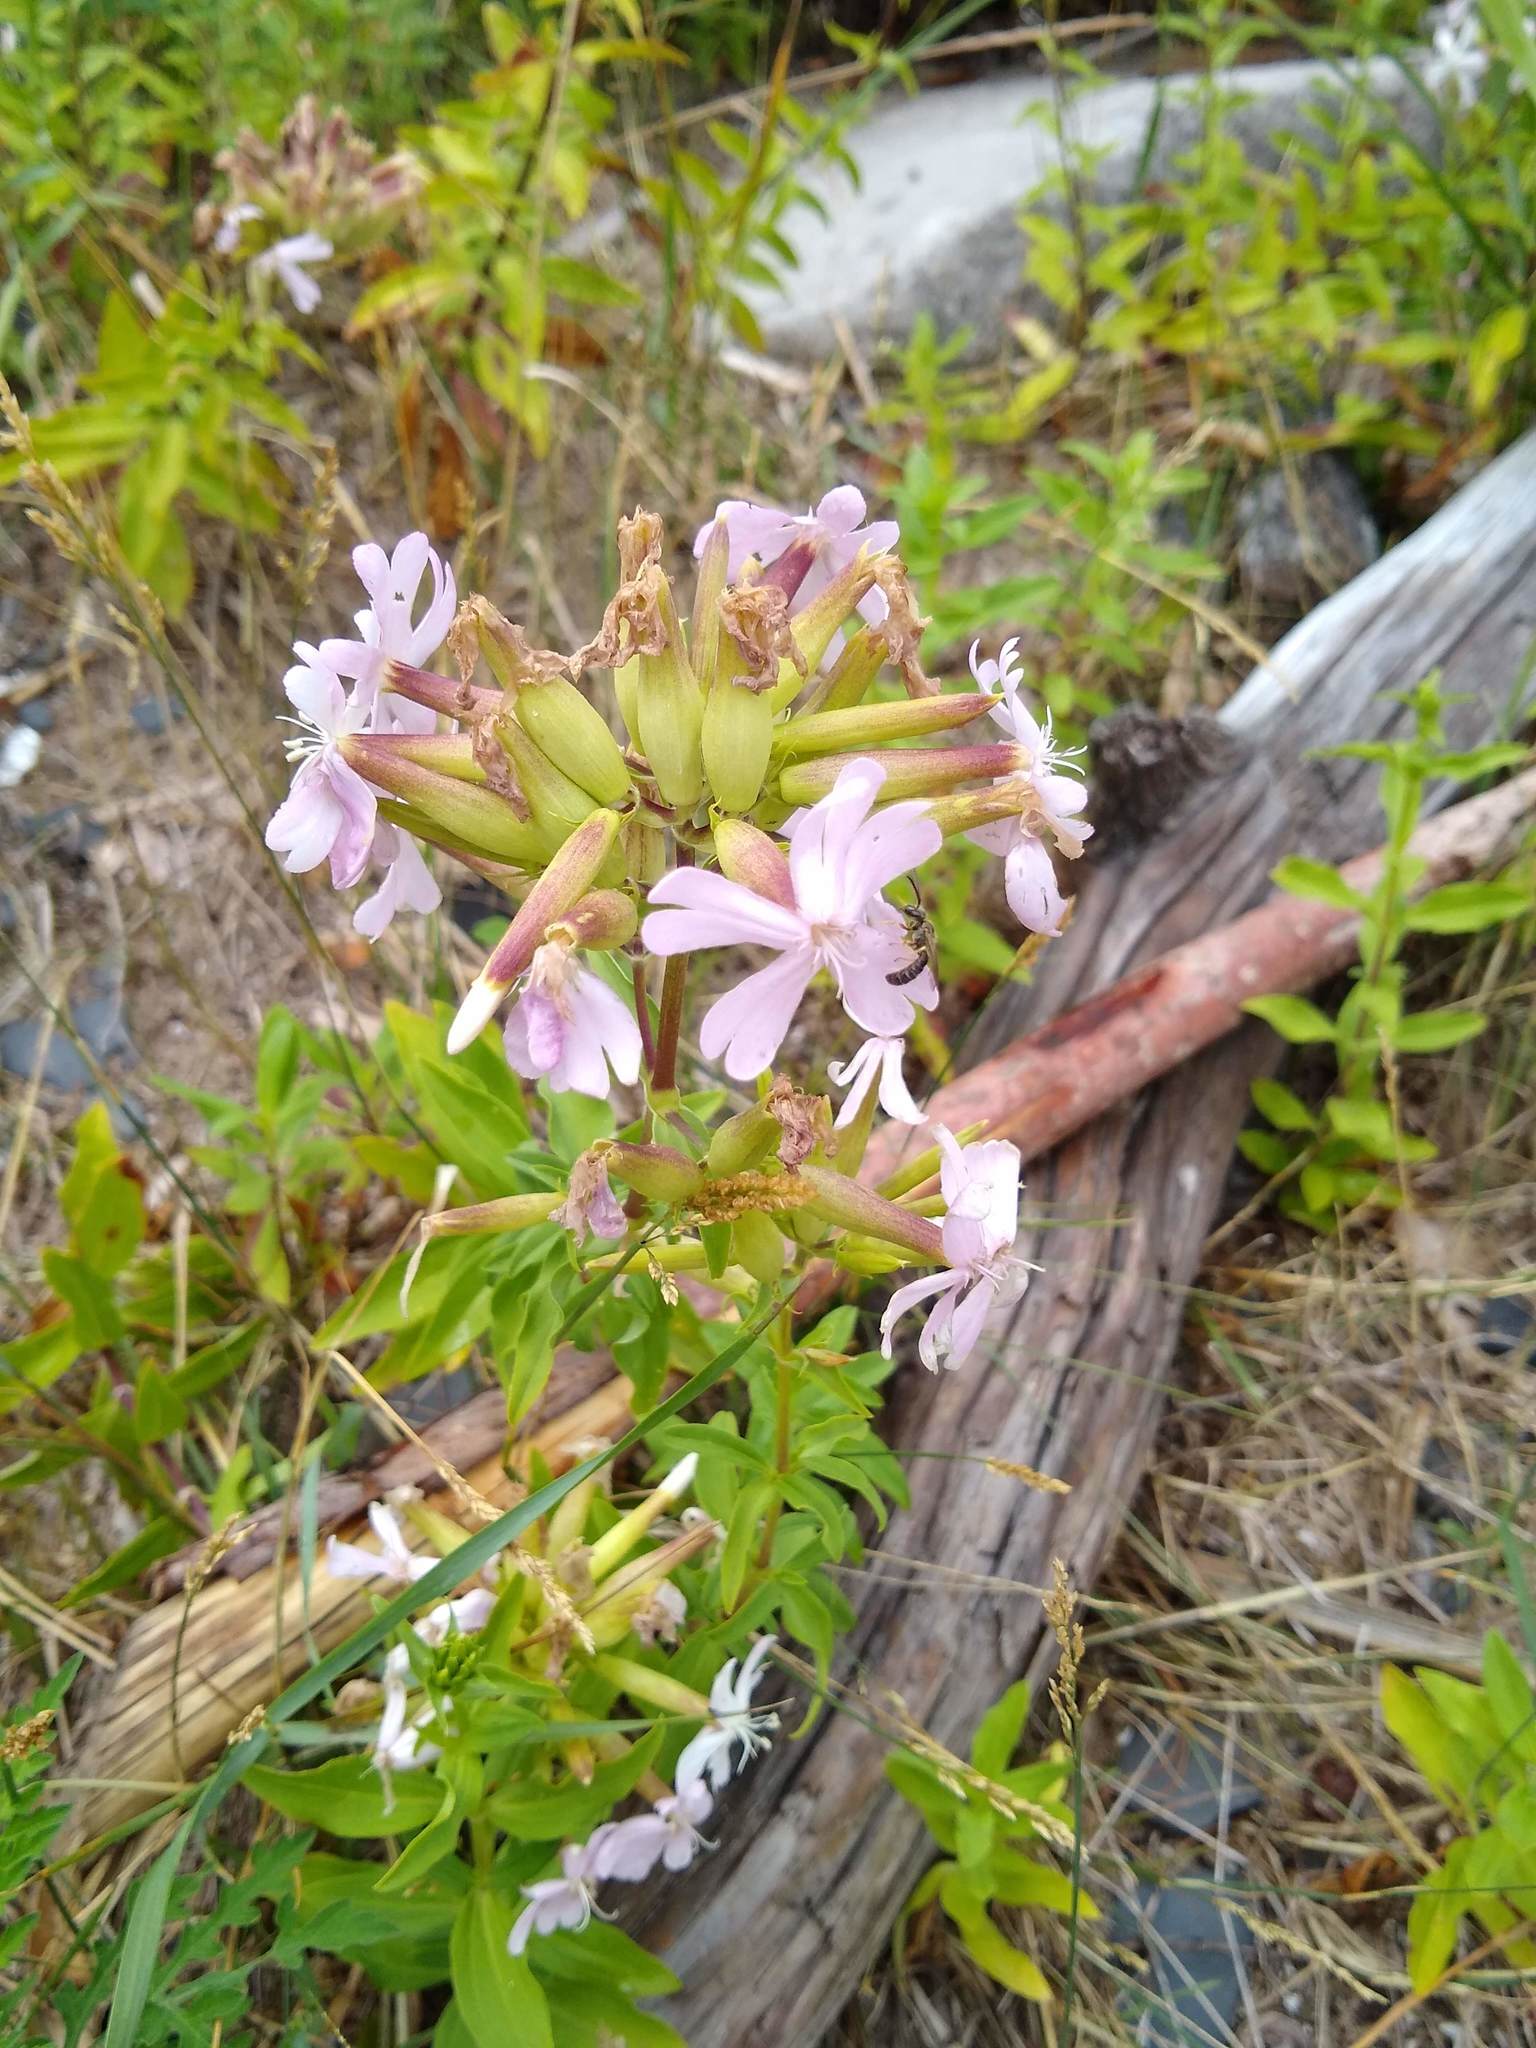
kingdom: Plantae
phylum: Tracheophyta
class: Magnoliopsida
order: Caryophyllales
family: Caryophyllaceae
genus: Saponaria
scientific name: Saponaria officinalis
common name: Soapwort
